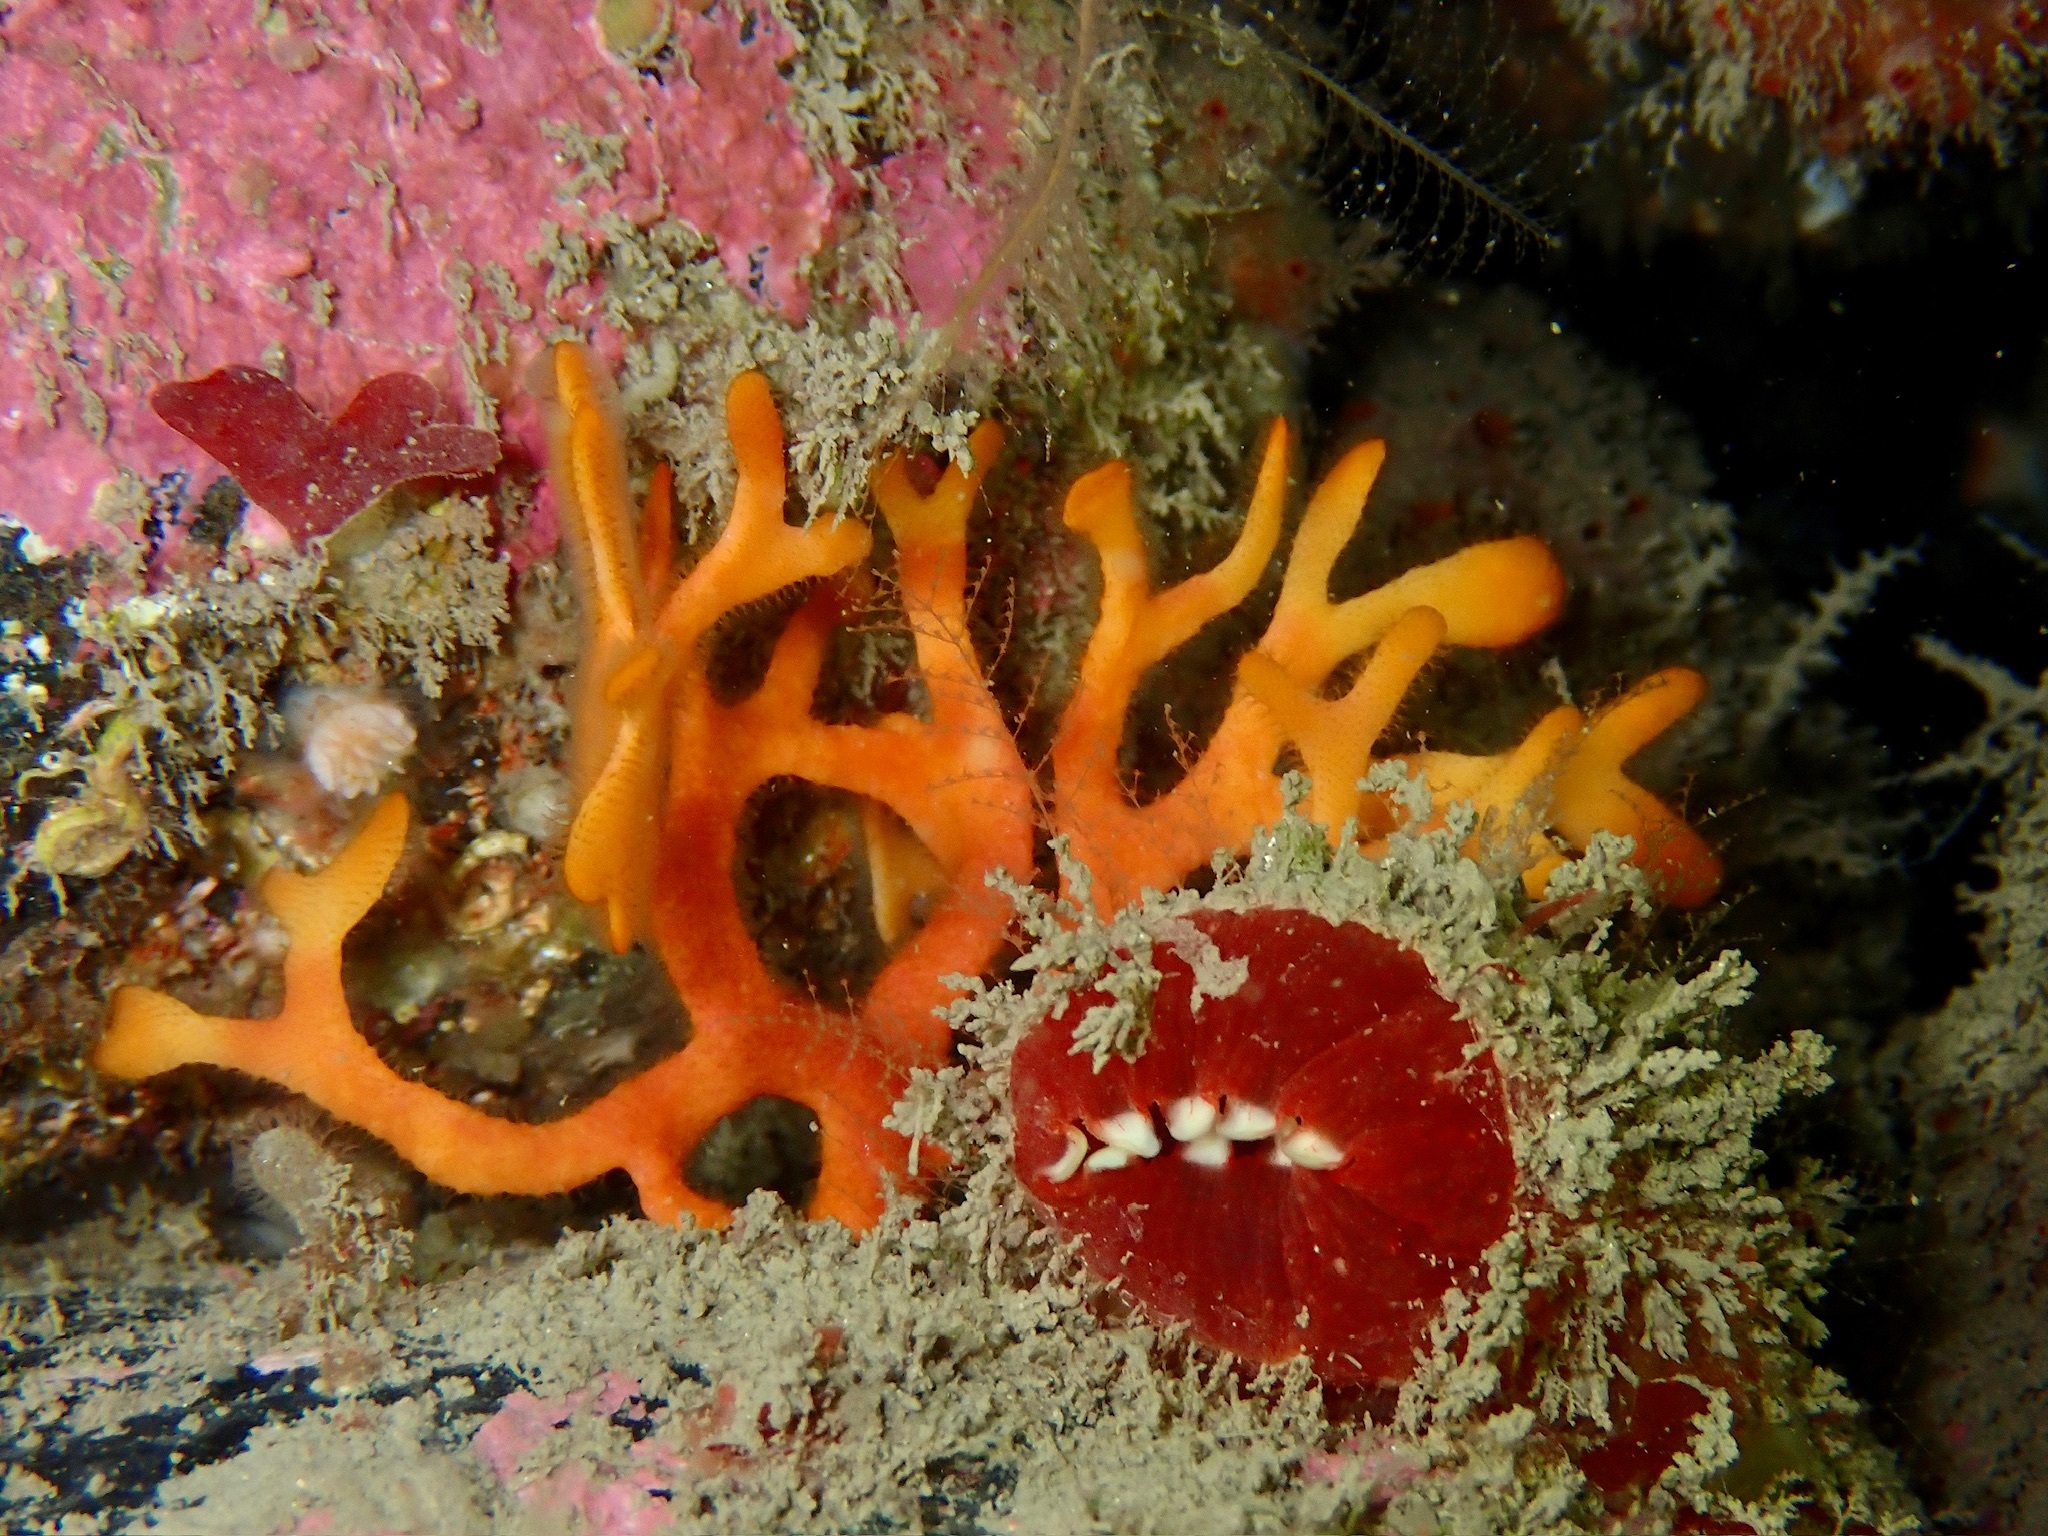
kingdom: Animalia
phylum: Bryozoa
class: Gymnolaemata
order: Cheilostomatida
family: Bryocryptellidae
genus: Porella
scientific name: Porella compressa
